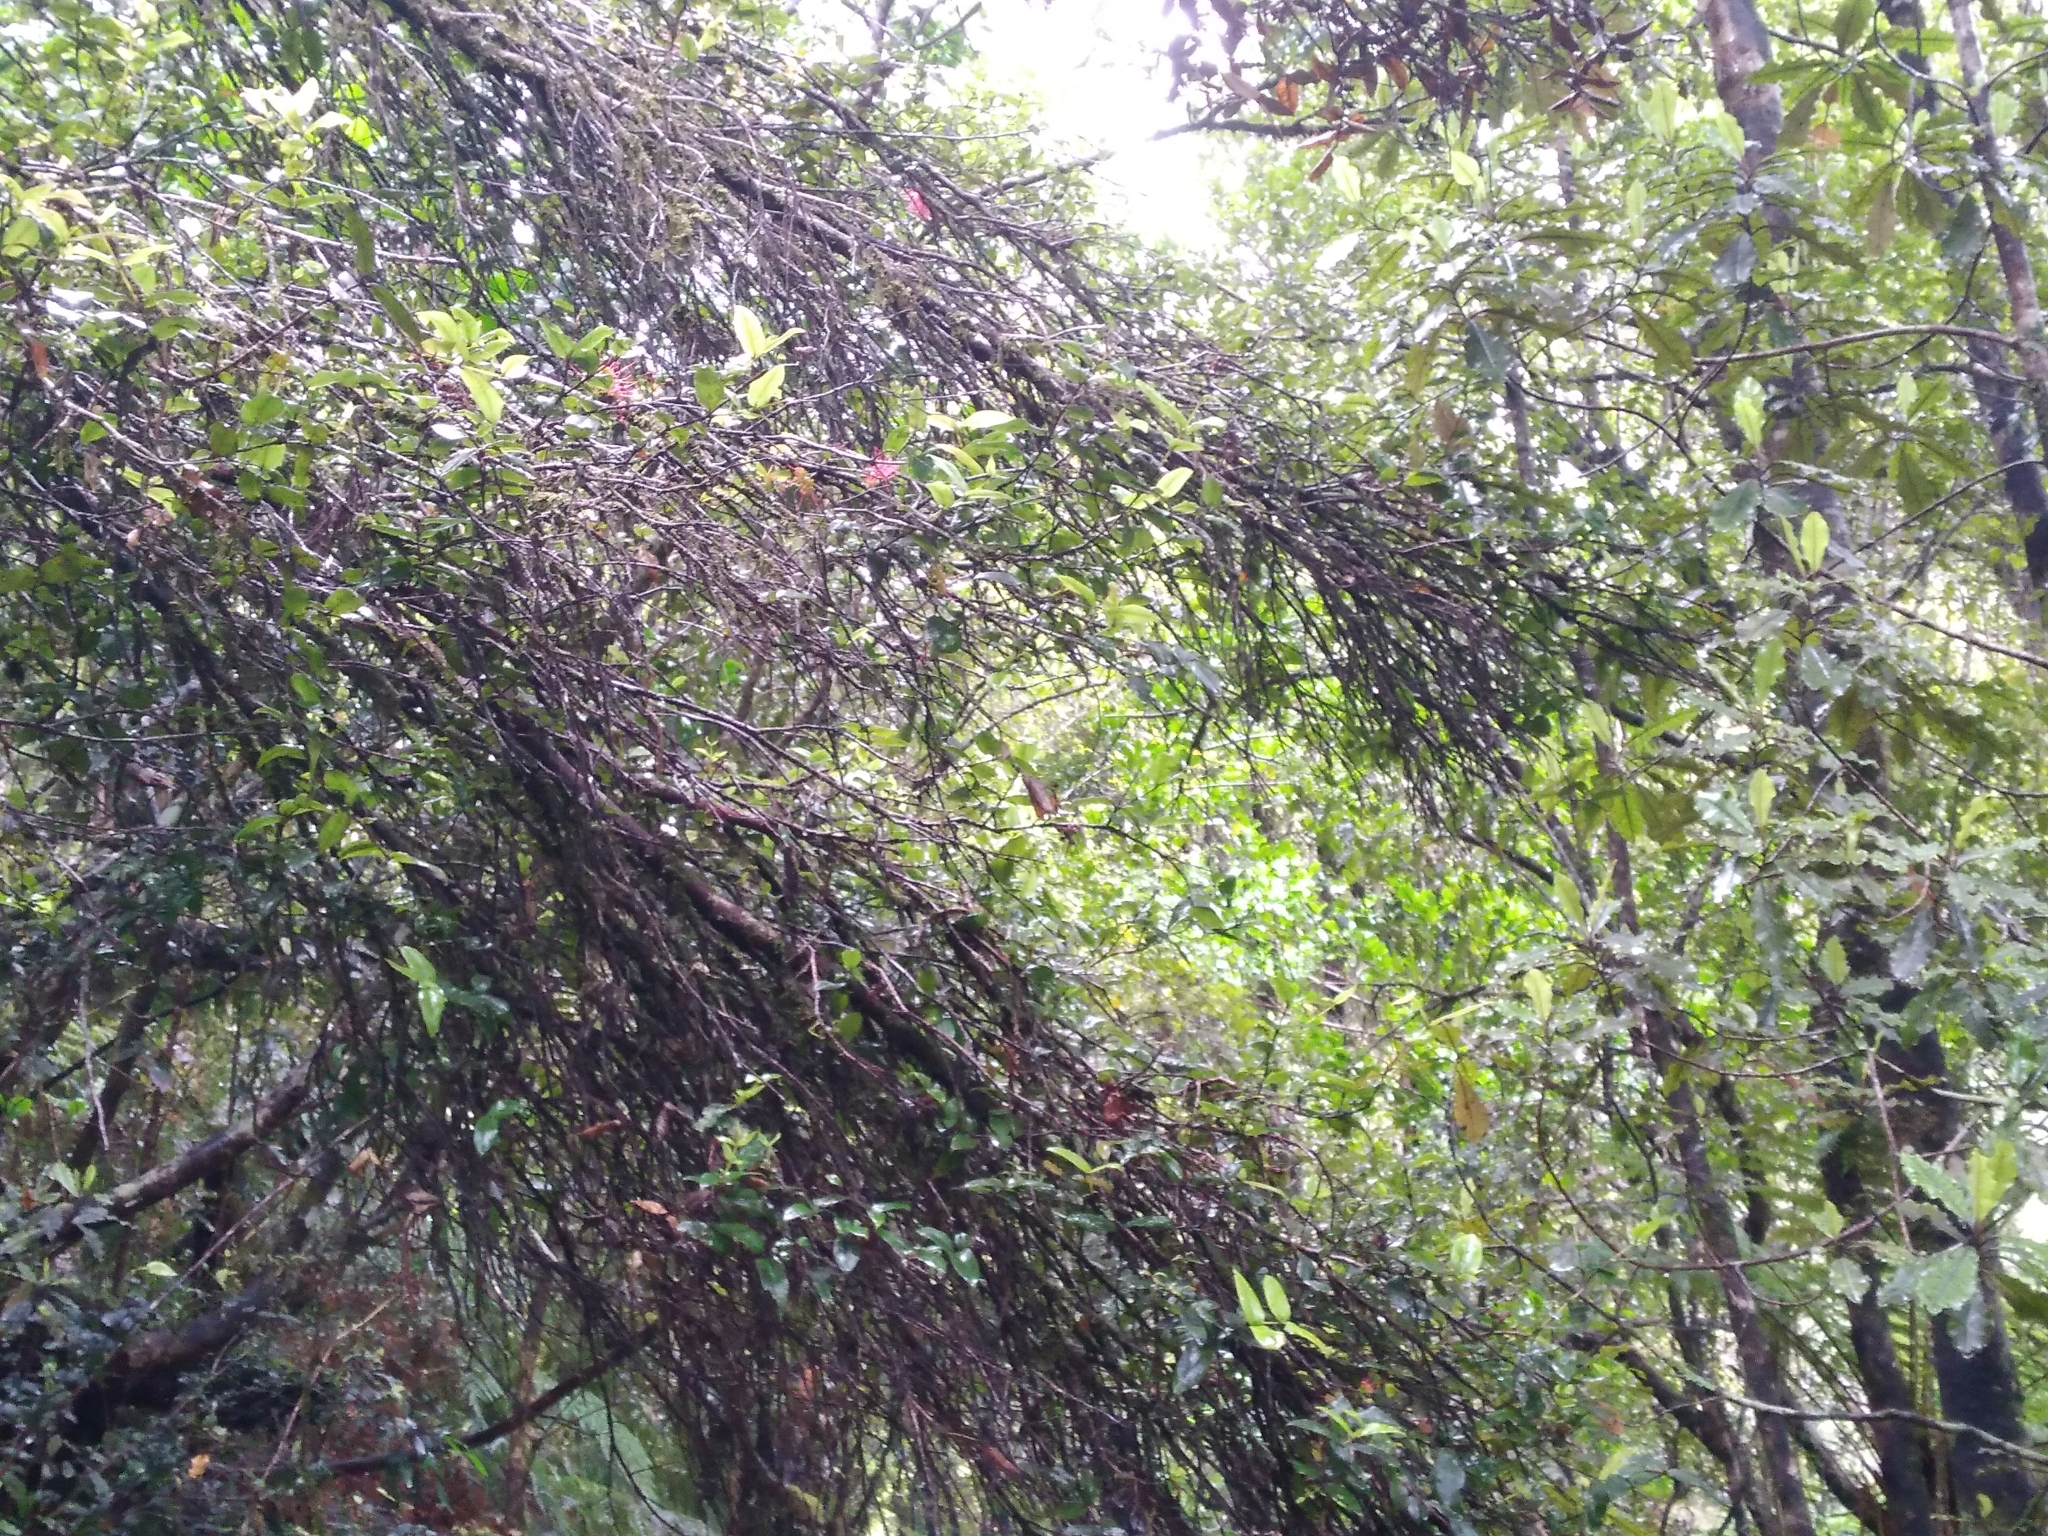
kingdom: Plantae
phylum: Tracheophyta
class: Magnoliopsida
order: Myrtales
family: Myrtaceae
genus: Metrosideros
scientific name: Metrosideros parkinsonii
